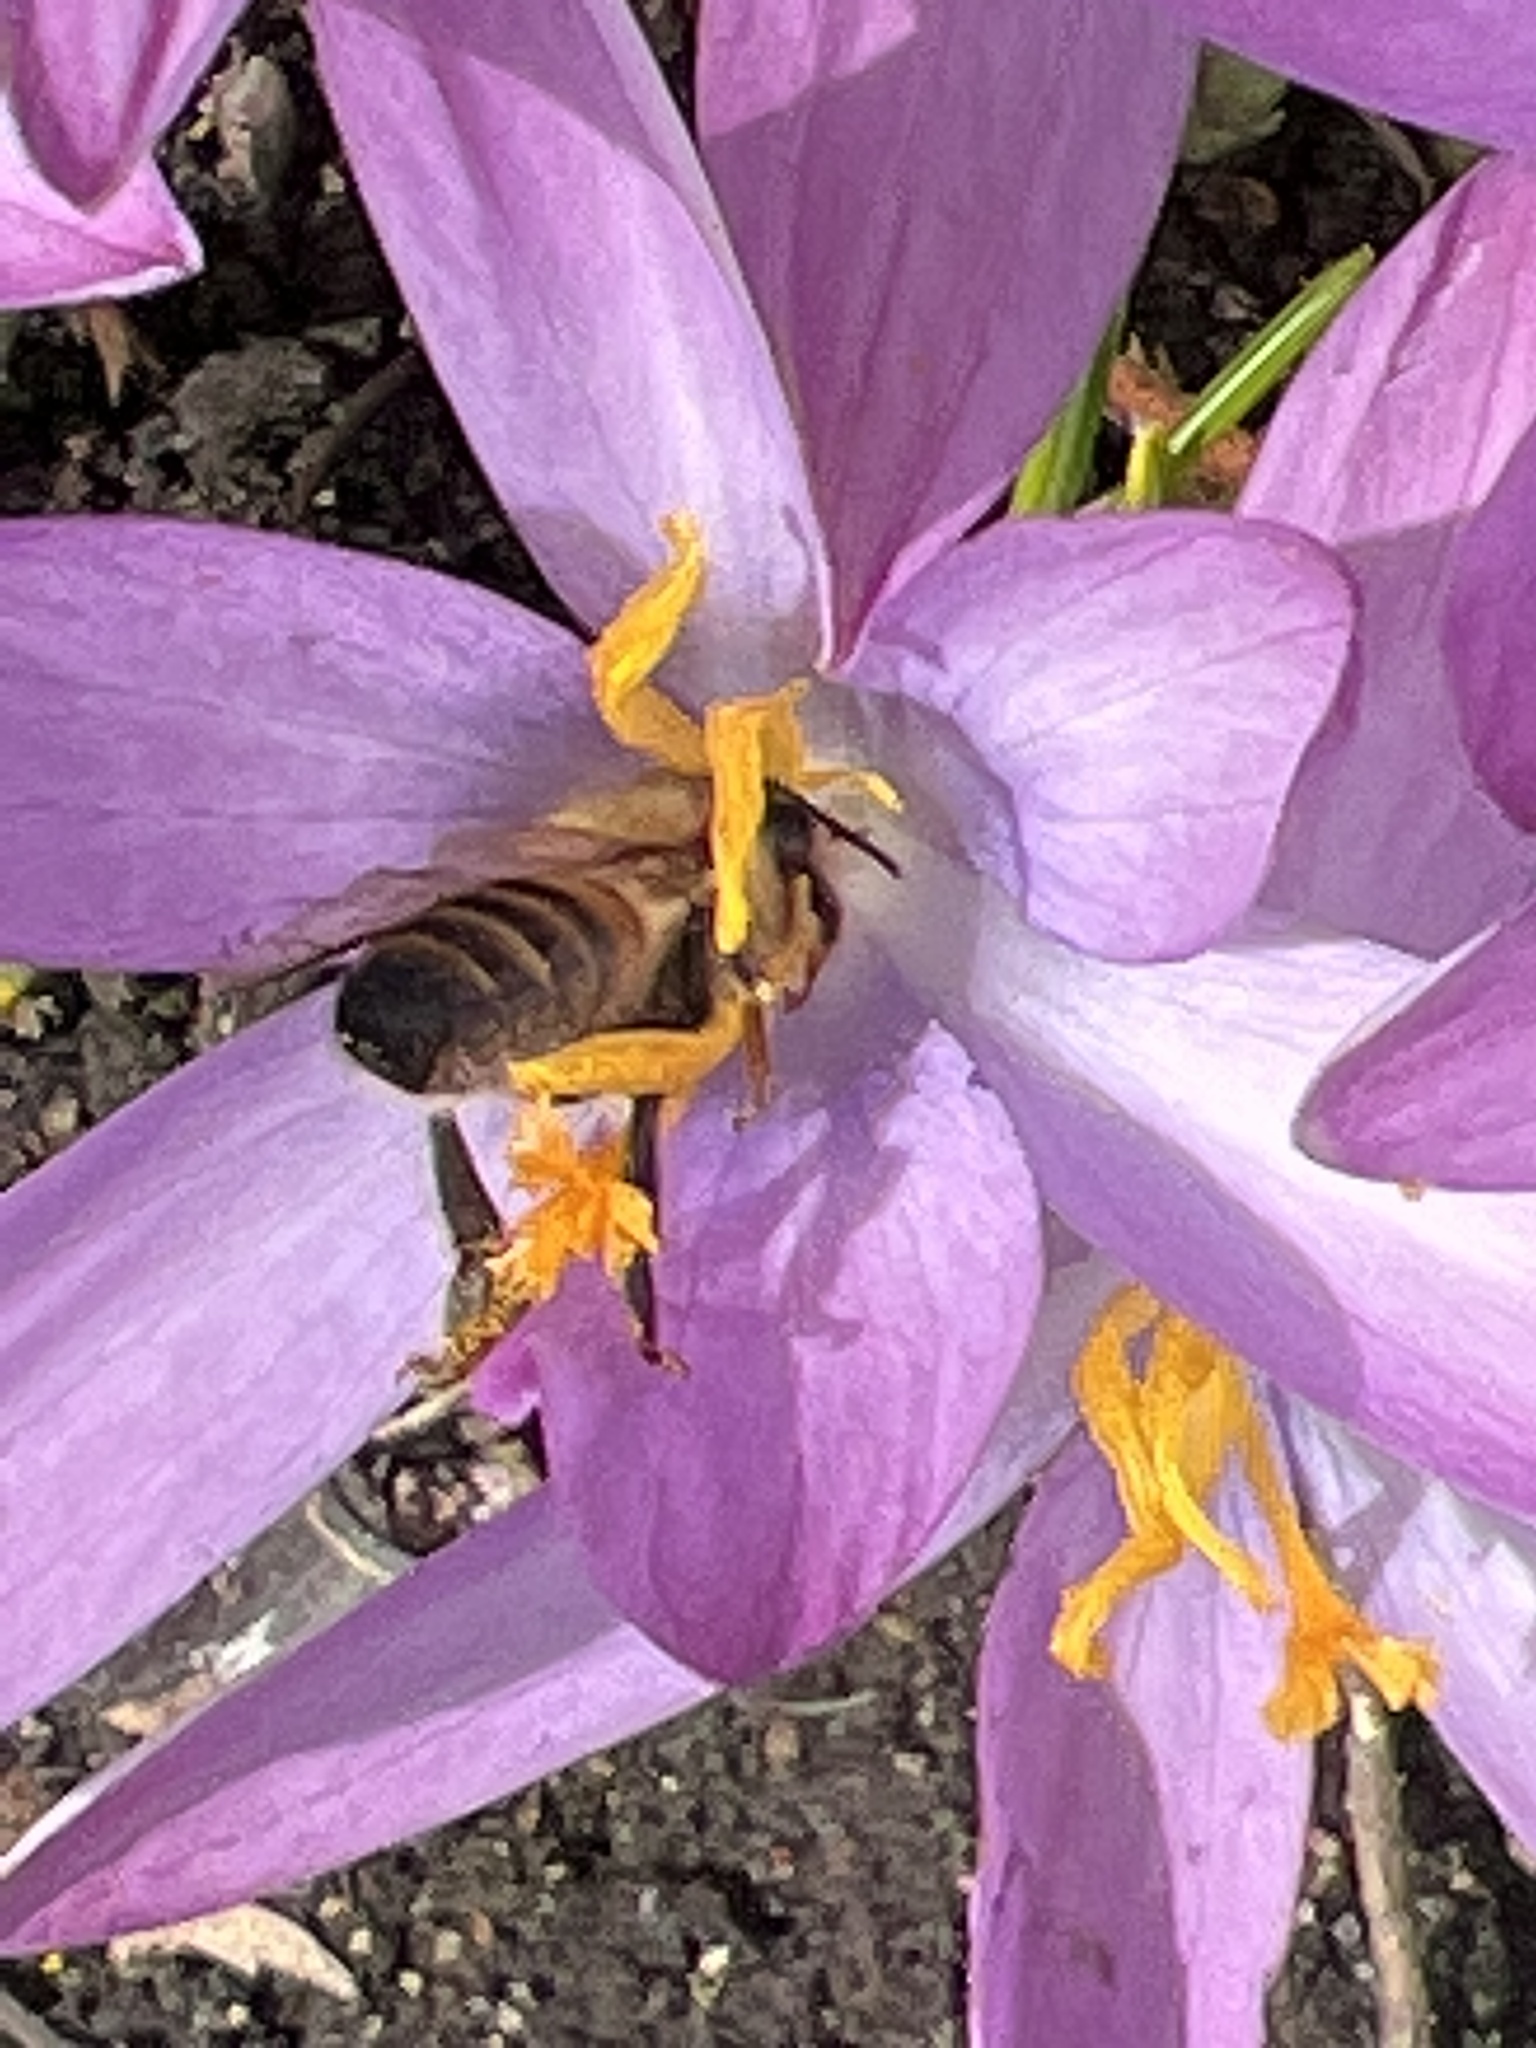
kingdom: Animalia
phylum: Arthropoda
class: Insecta
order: Hymenoptera
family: Apidae
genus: Apis
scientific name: Apis mellifera
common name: Honey bee
